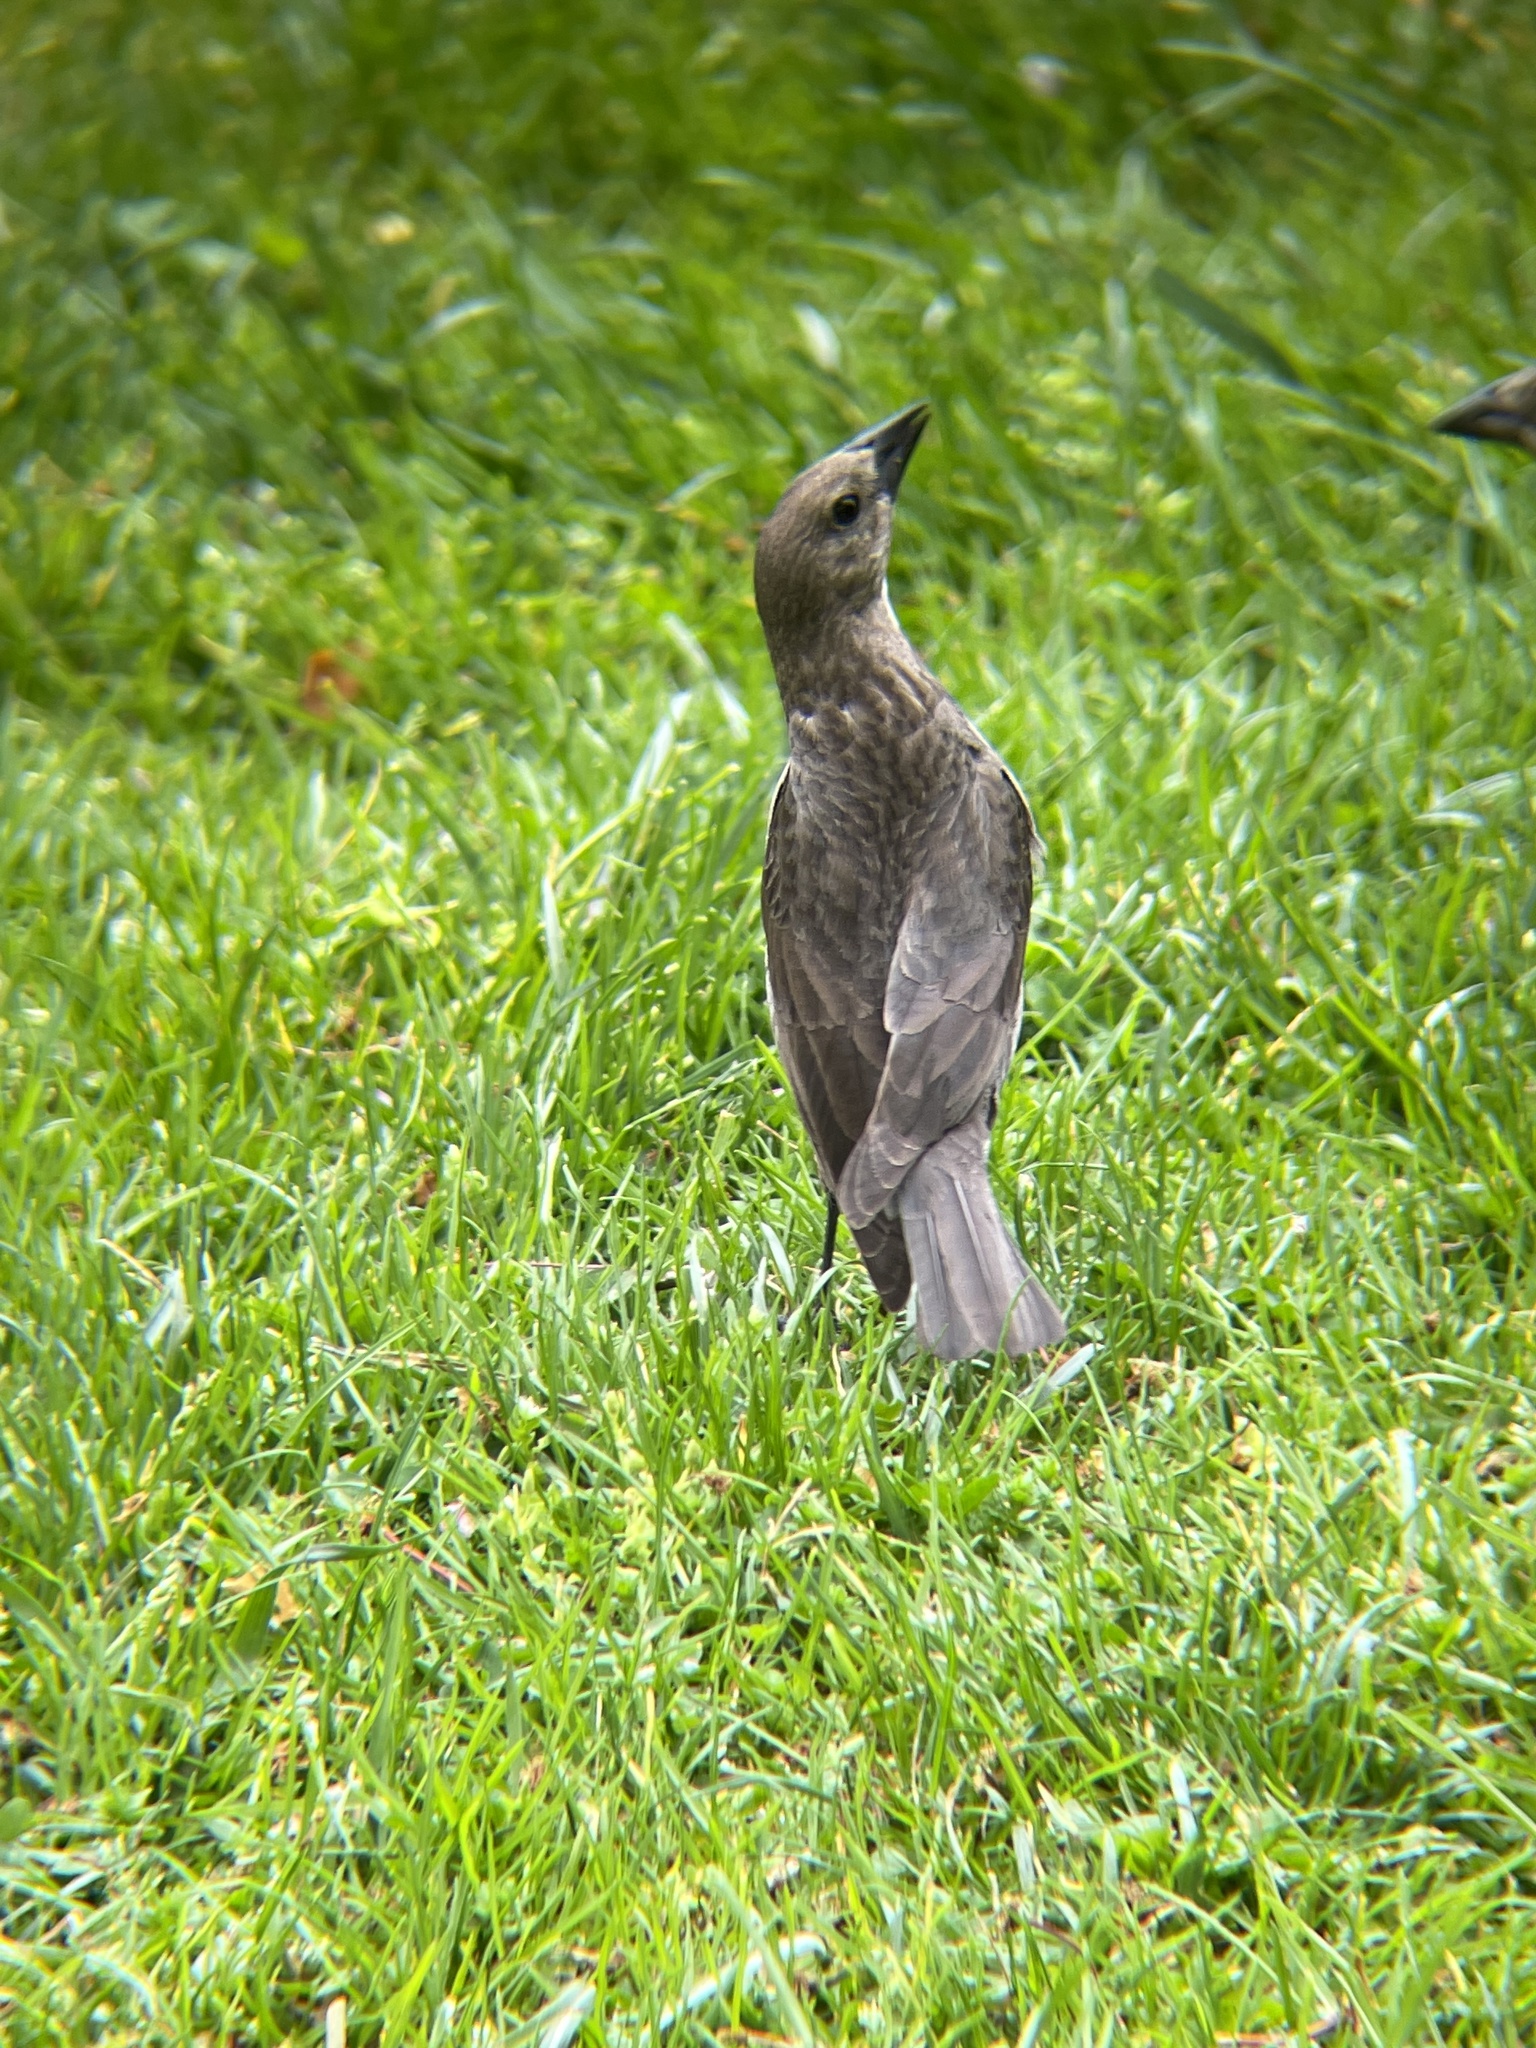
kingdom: Animalia
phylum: Chordata
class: Aves
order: Passeriformes
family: Icteridae
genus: Molothrus
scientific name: Molothrus ater
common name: Brown-headed cowbird
